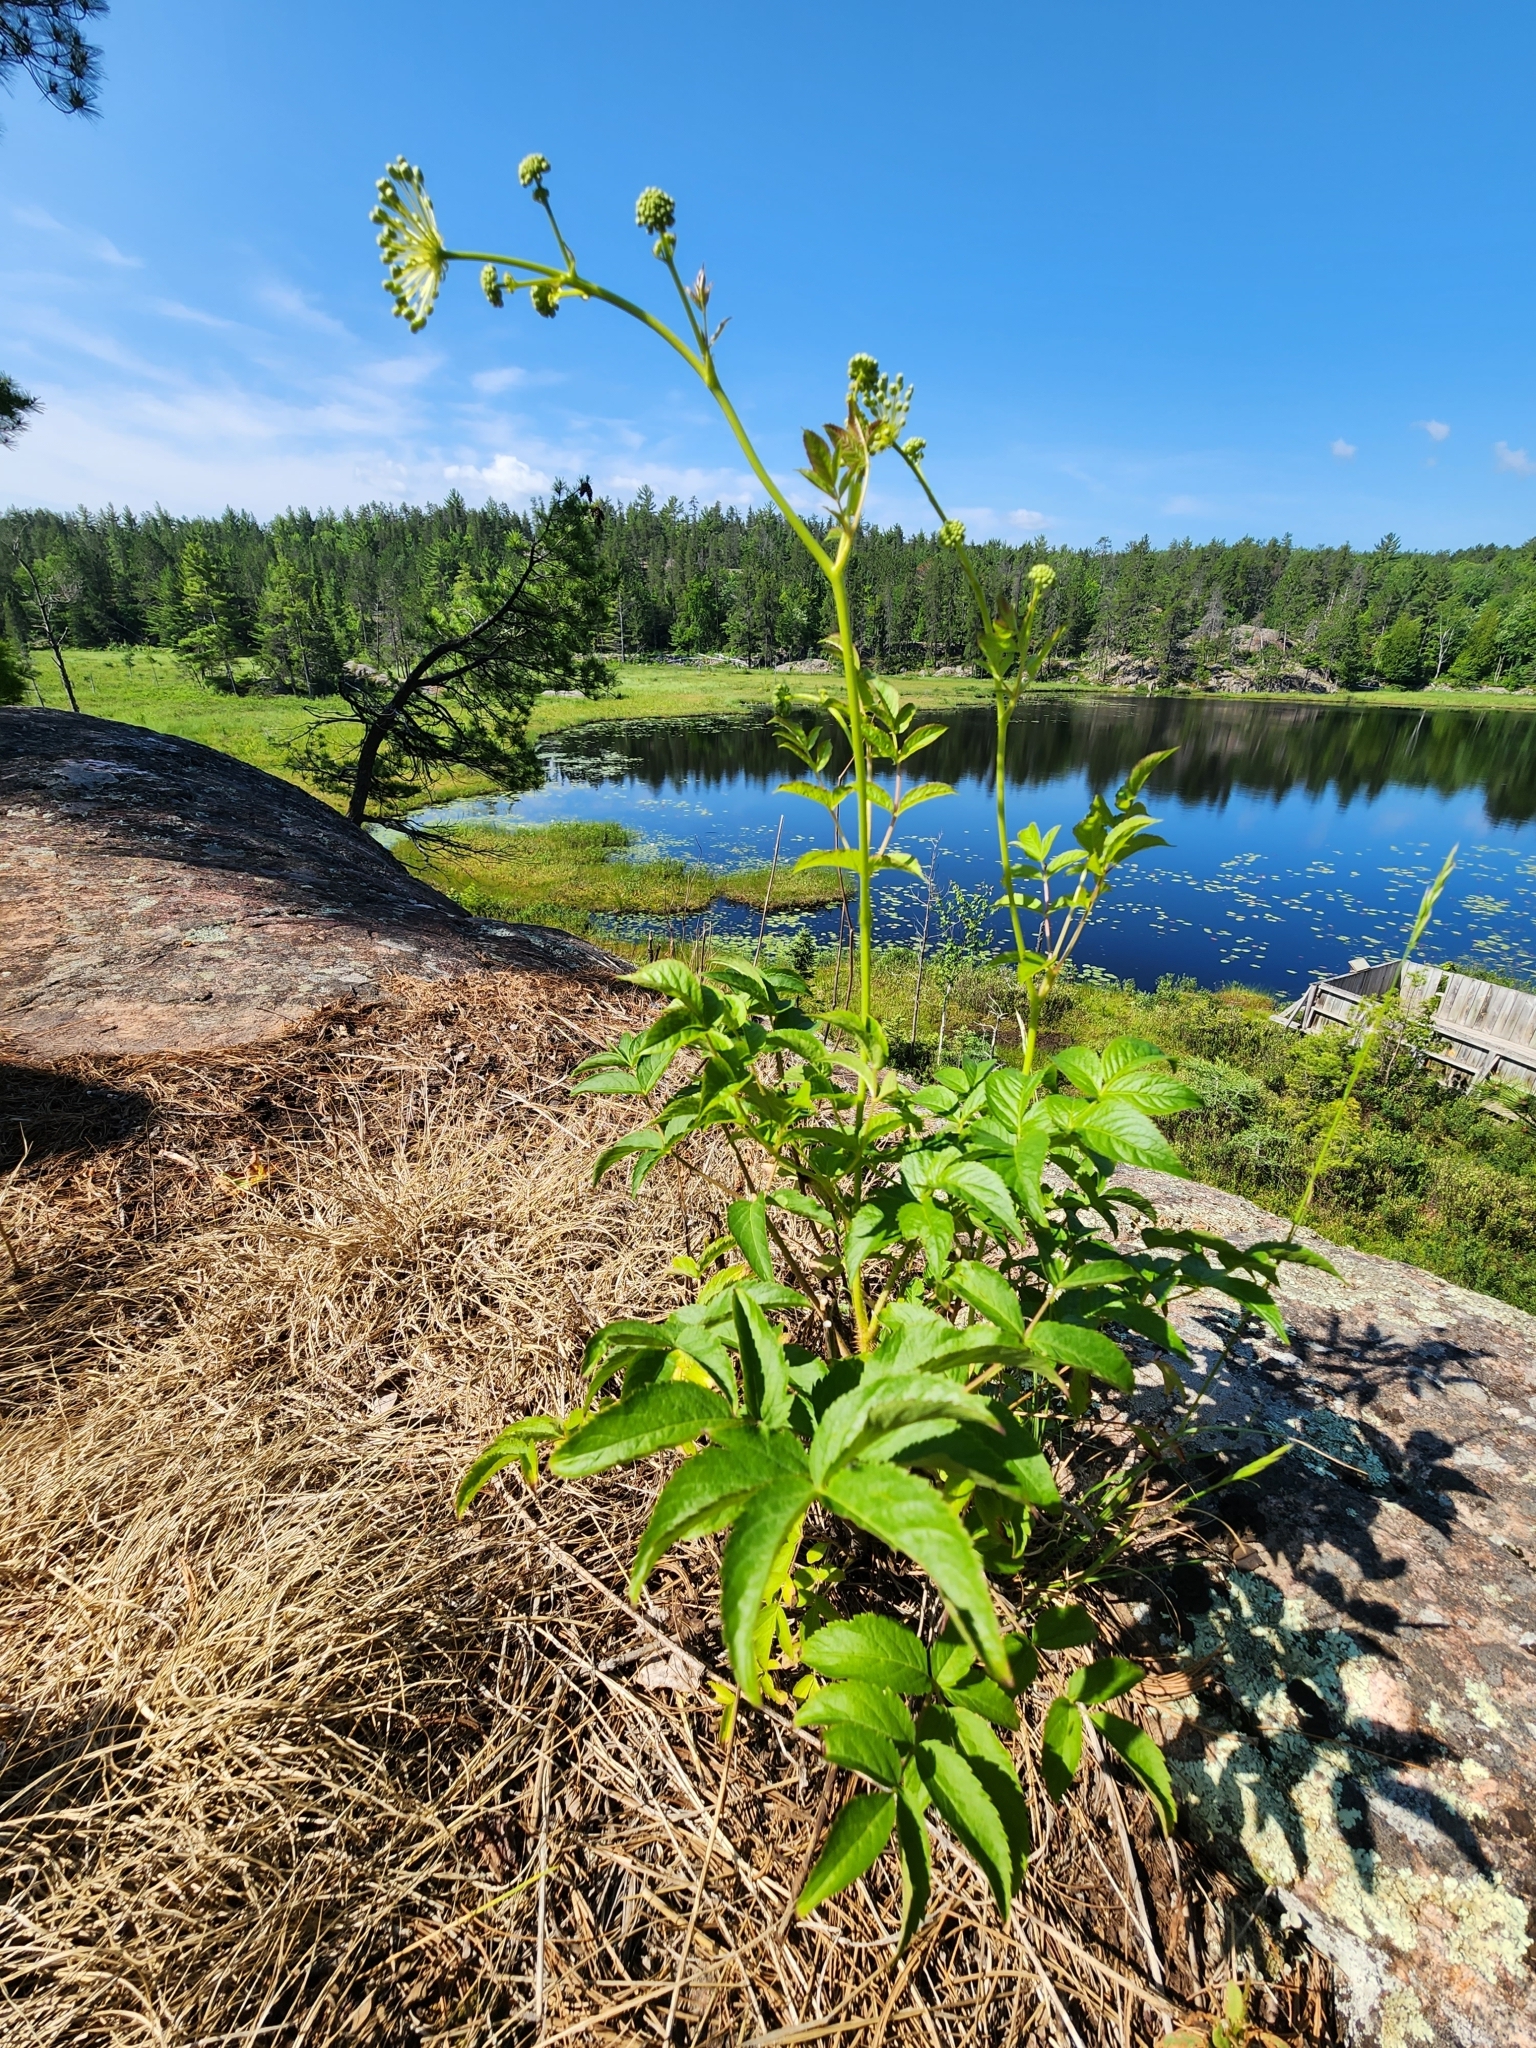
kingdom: Plantae
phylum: Tracheophyta
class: Magnoliopsida
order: Apiales
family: Araliaceae
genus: Aralia
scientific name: Aralia hispida
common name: Bristly sarsaparilla
